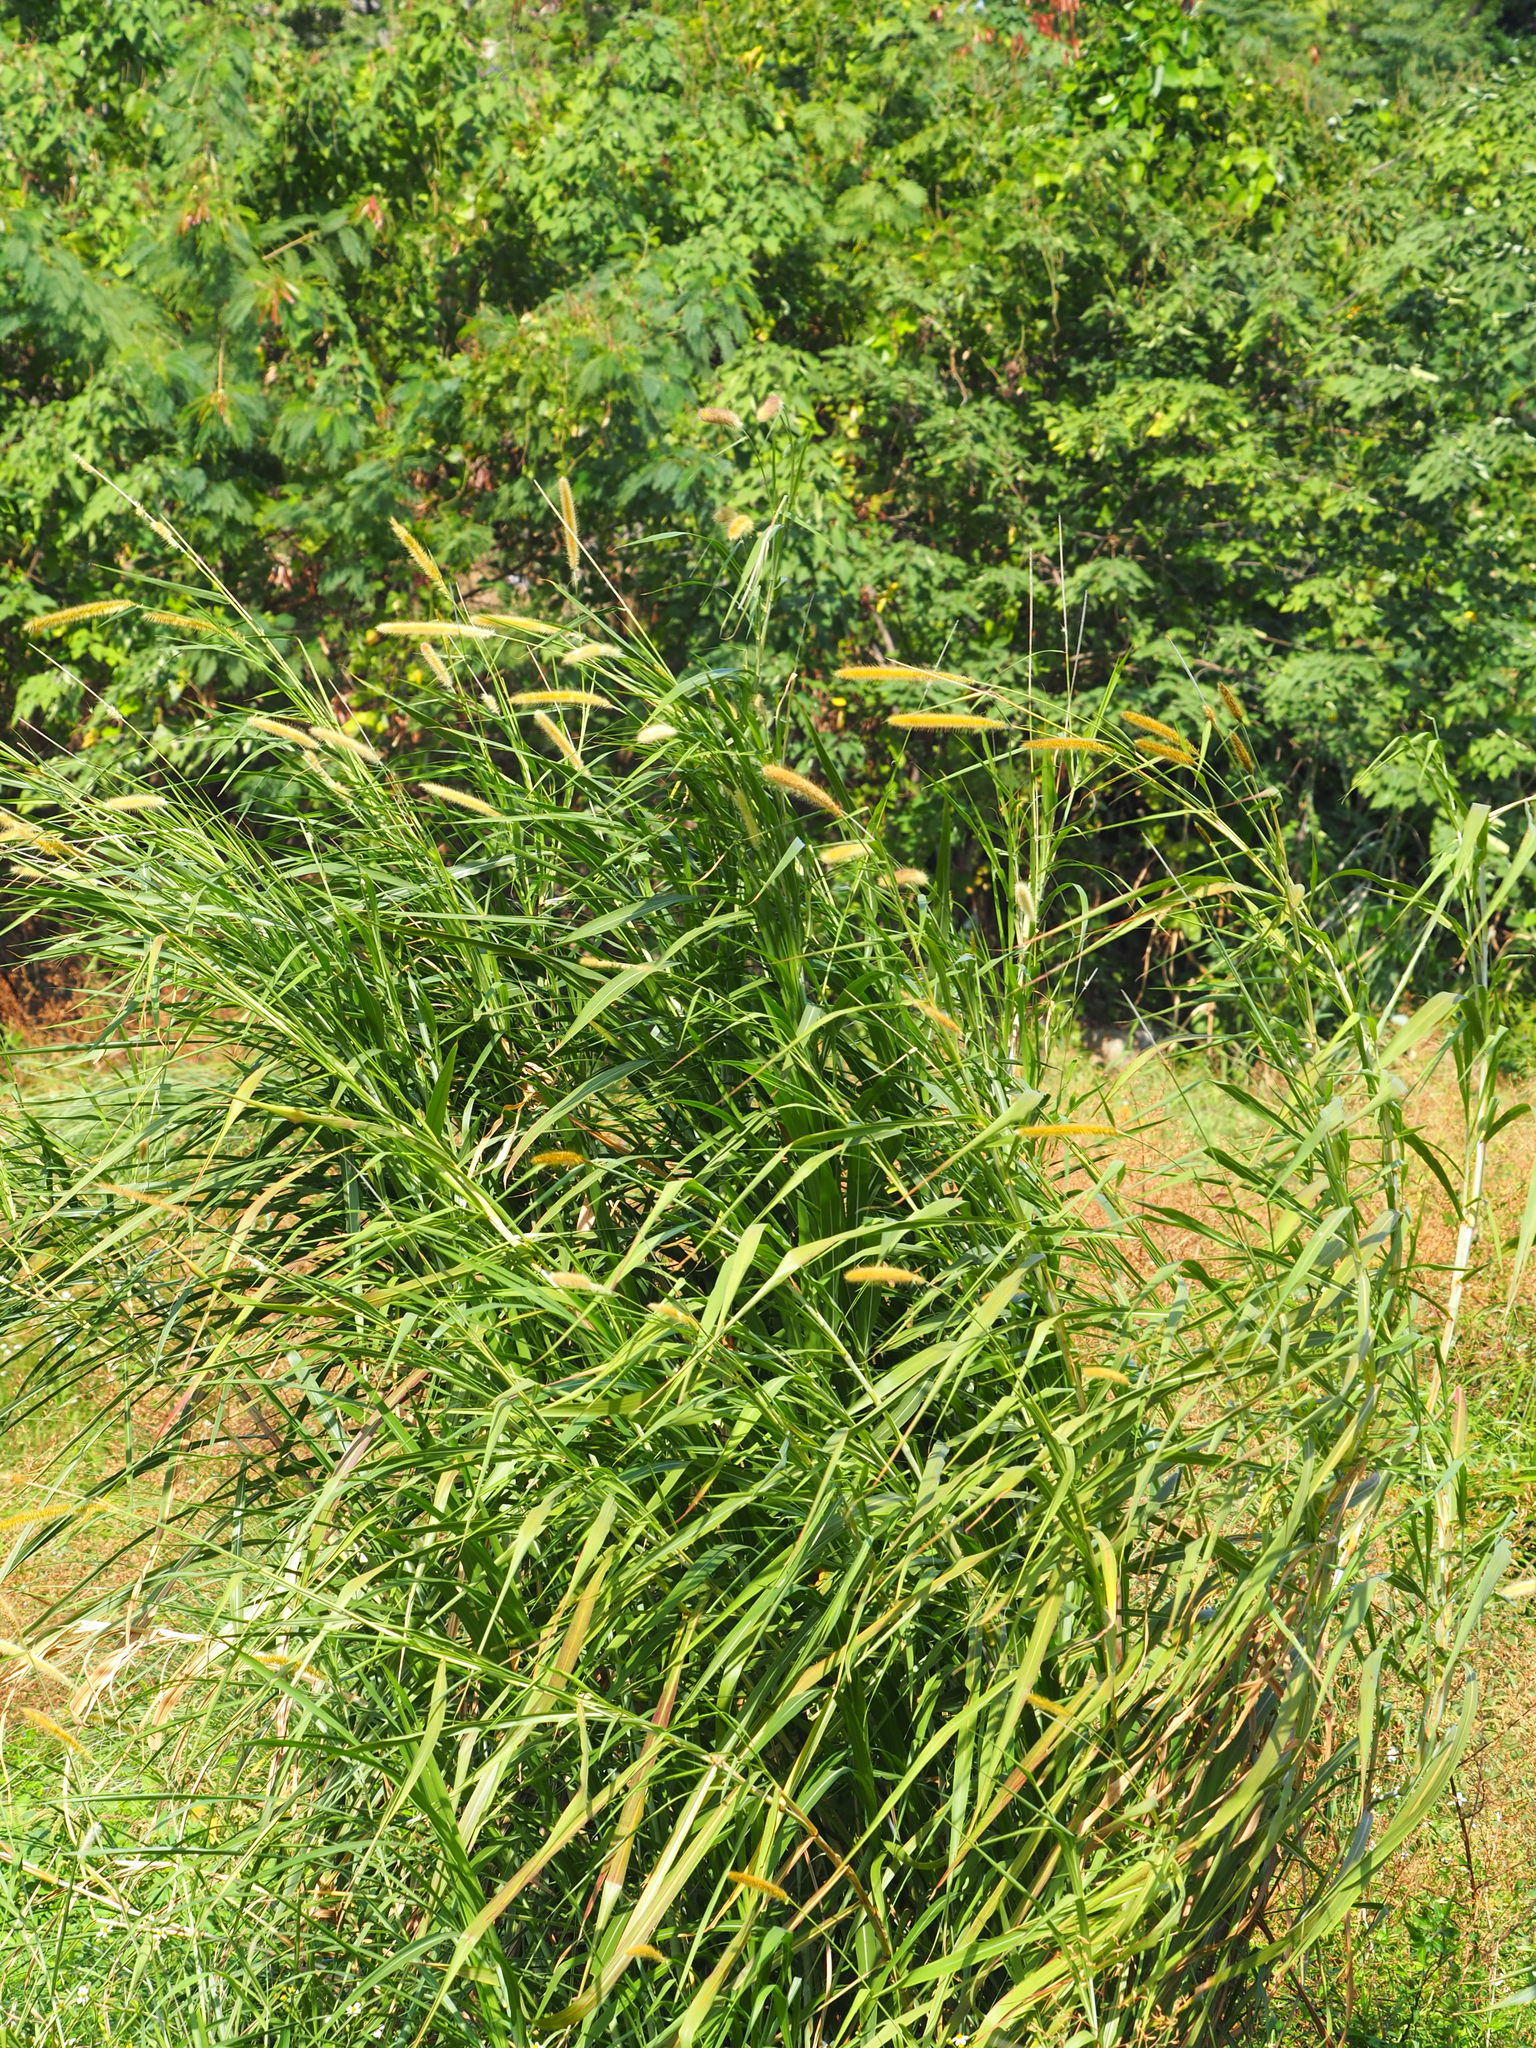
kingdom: Plantae
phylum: Tracheophyta
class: Liliopsida
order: Poales
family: Poaceae
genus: Cenchrus
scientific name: Cenchrus purpureus
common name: Elephant grass
